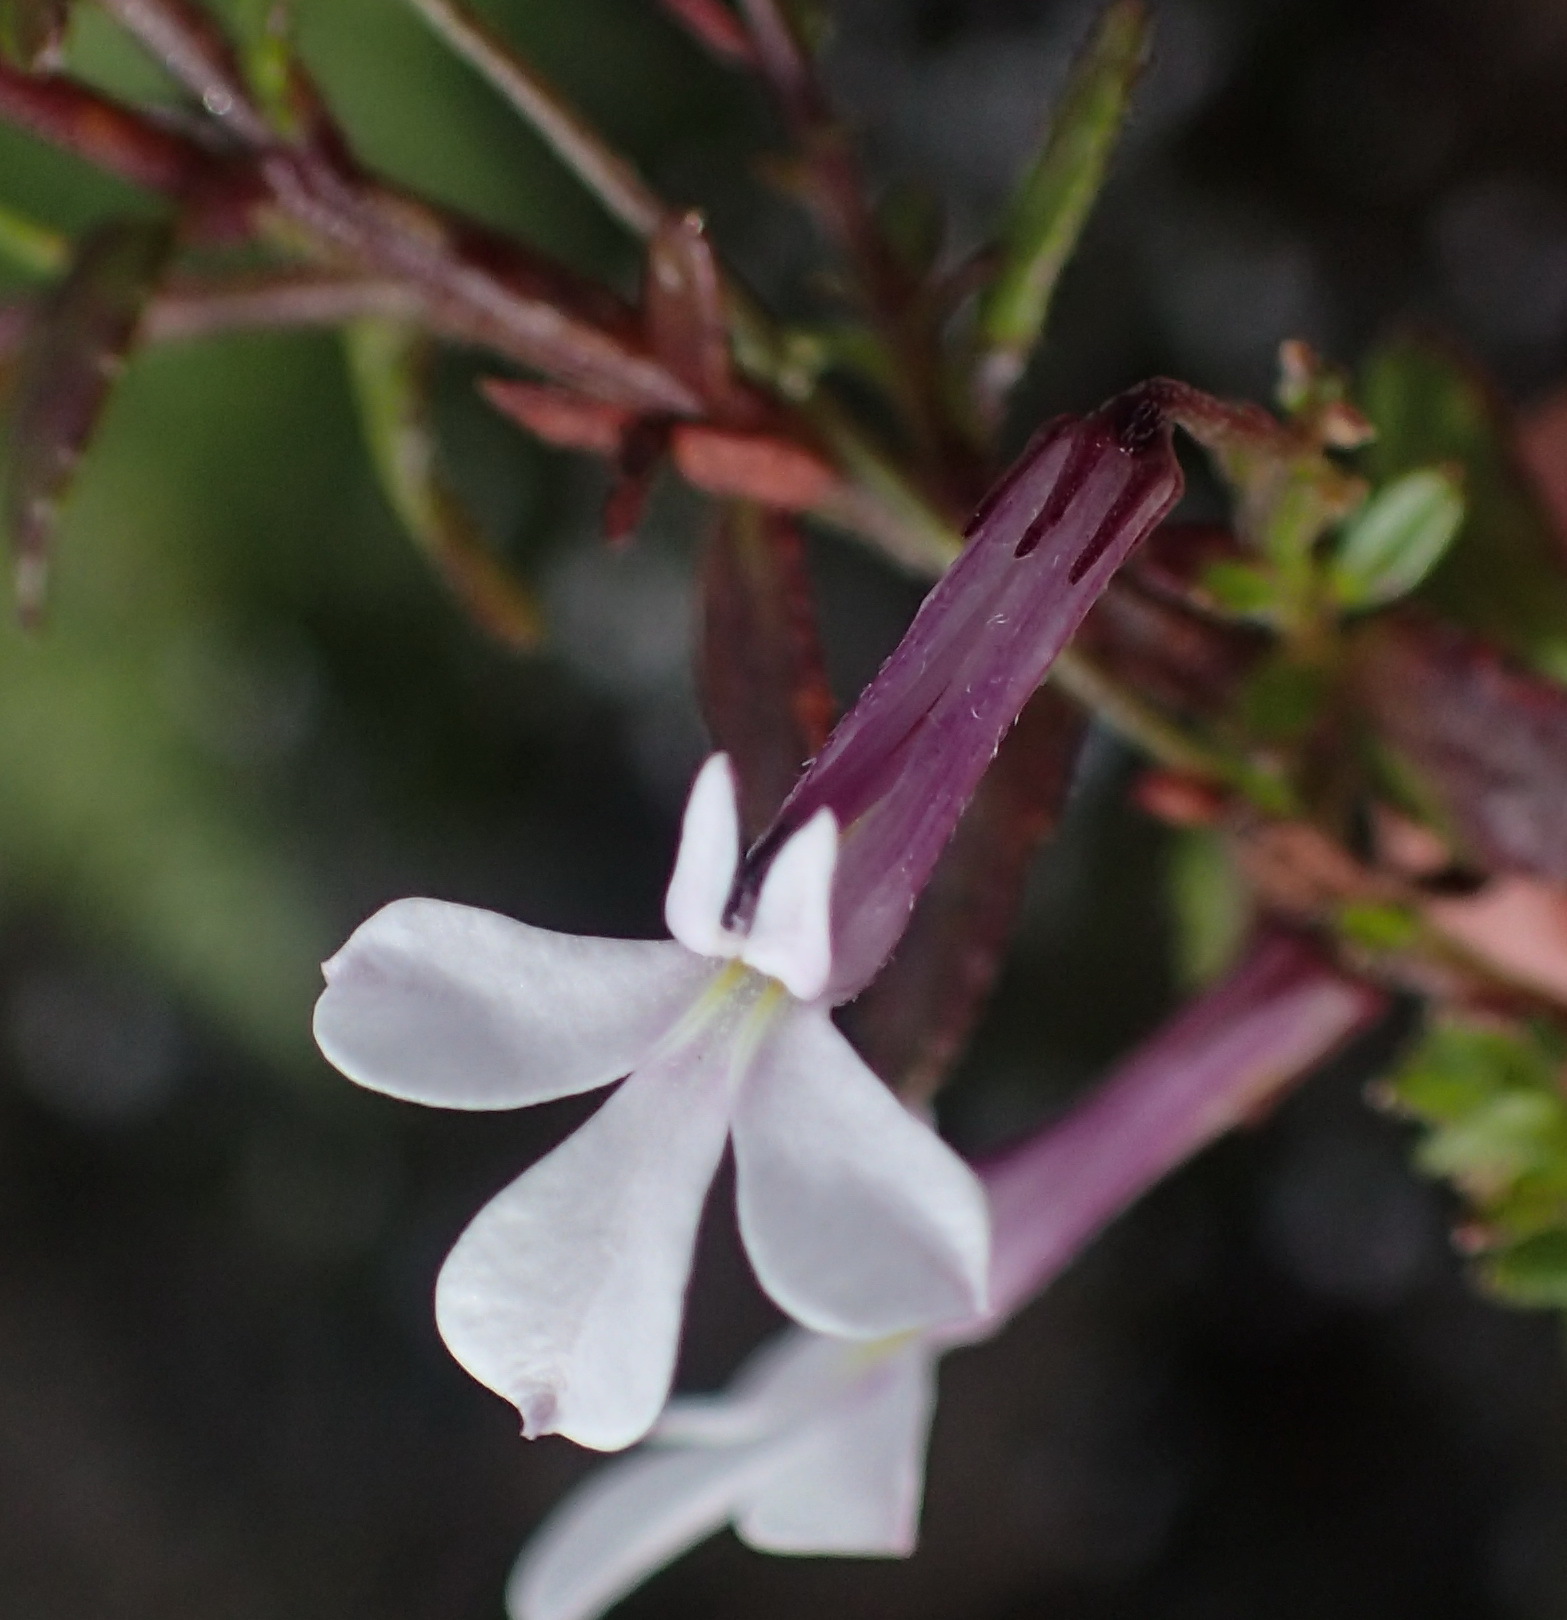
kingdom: Plantae
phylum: Tracheophyta
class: Magnoliopsida
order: Asterales
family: Campanulaceae
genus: Lobelia
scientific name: Lobelia neglecta
